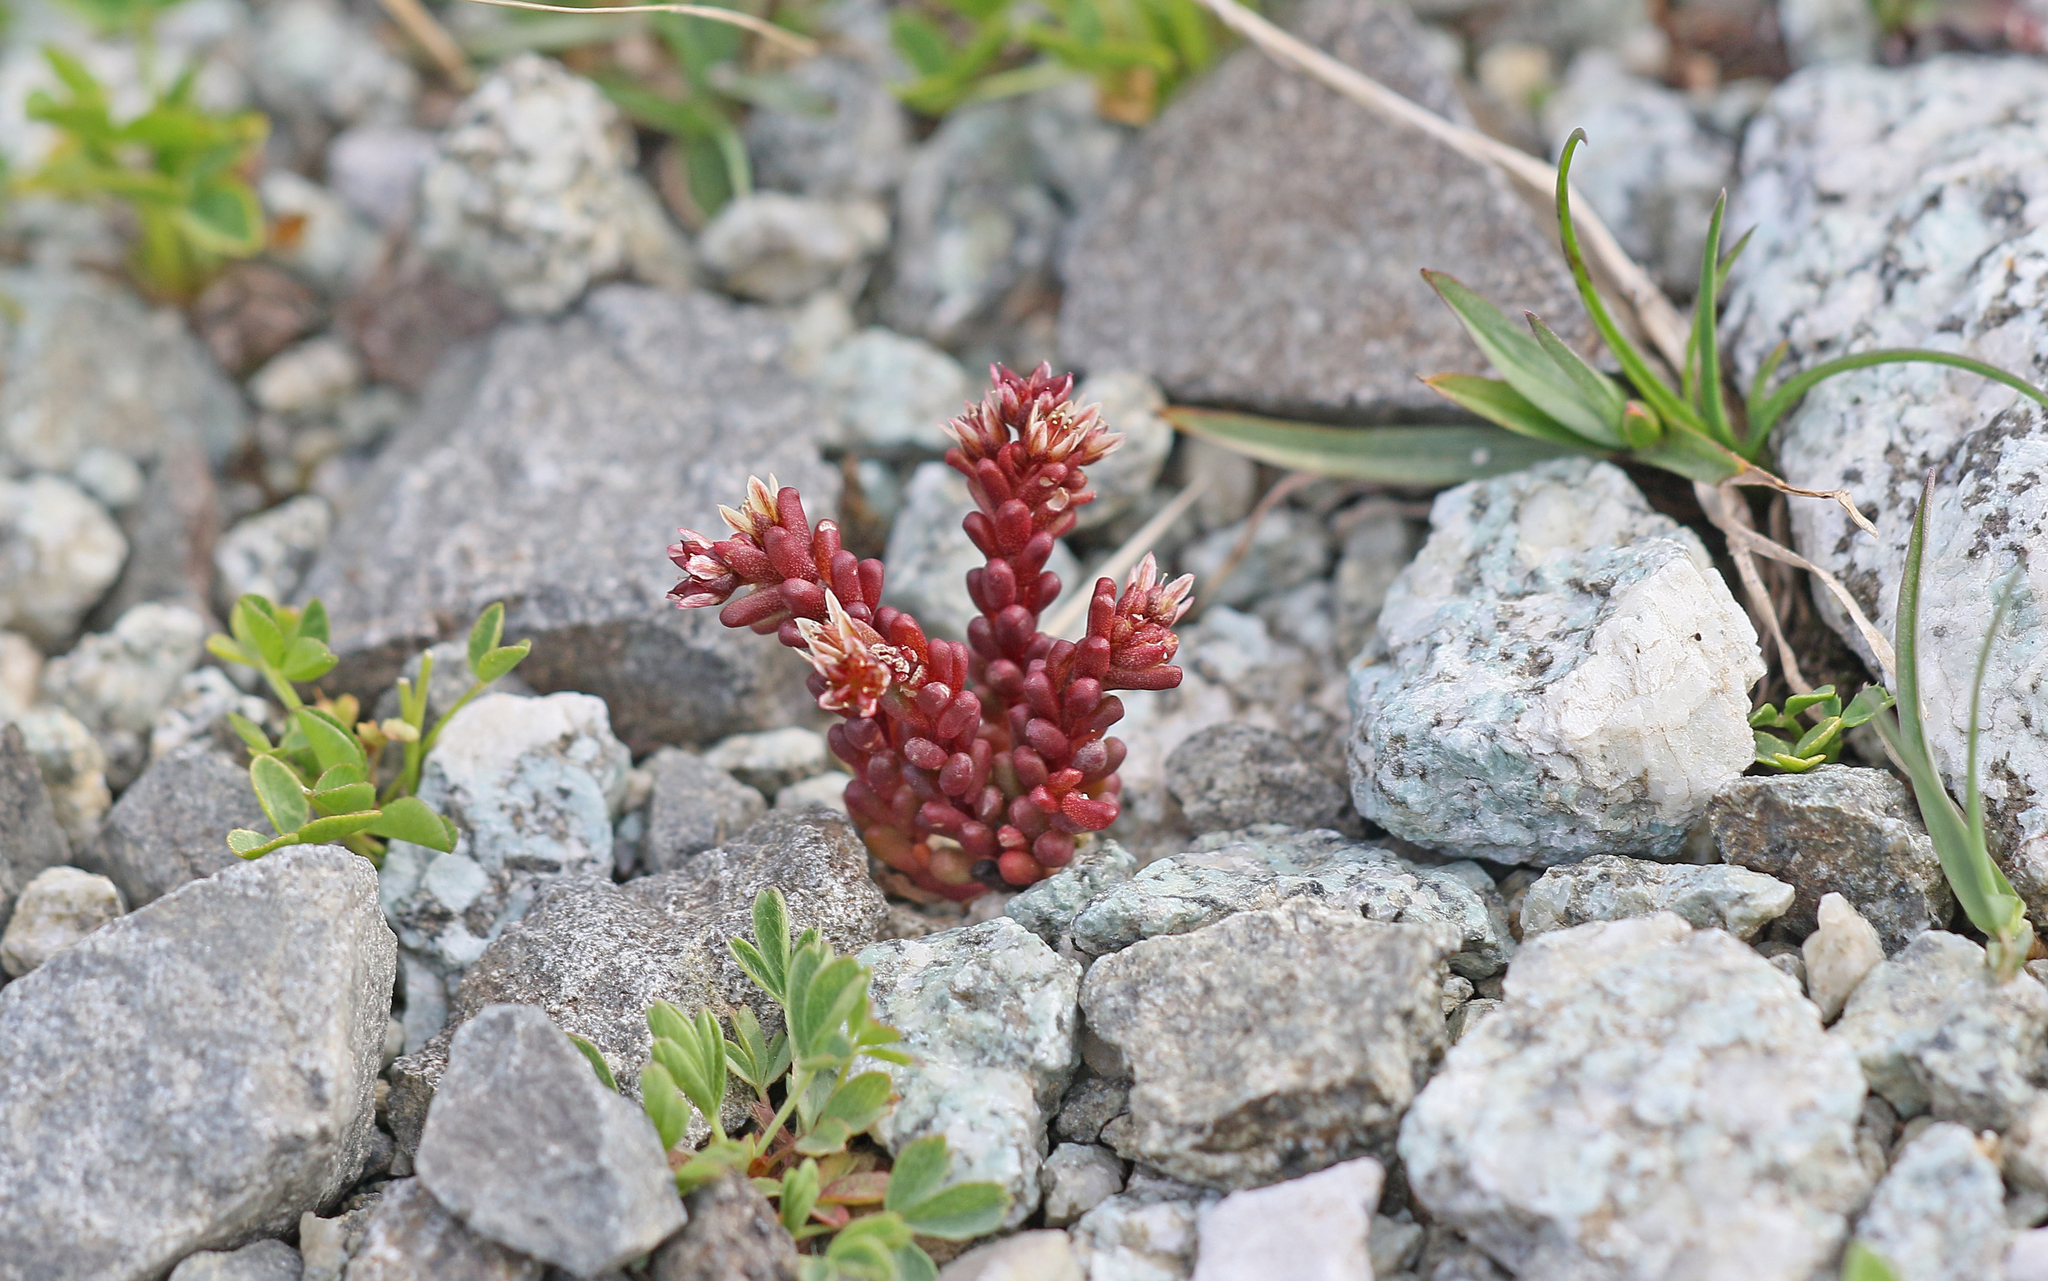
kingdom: Plantae
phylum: Tracheophyta
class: Magnoliopsida
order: Saxifragales
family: Crassulaceae
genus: Sedum
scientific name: Sedum atratum
